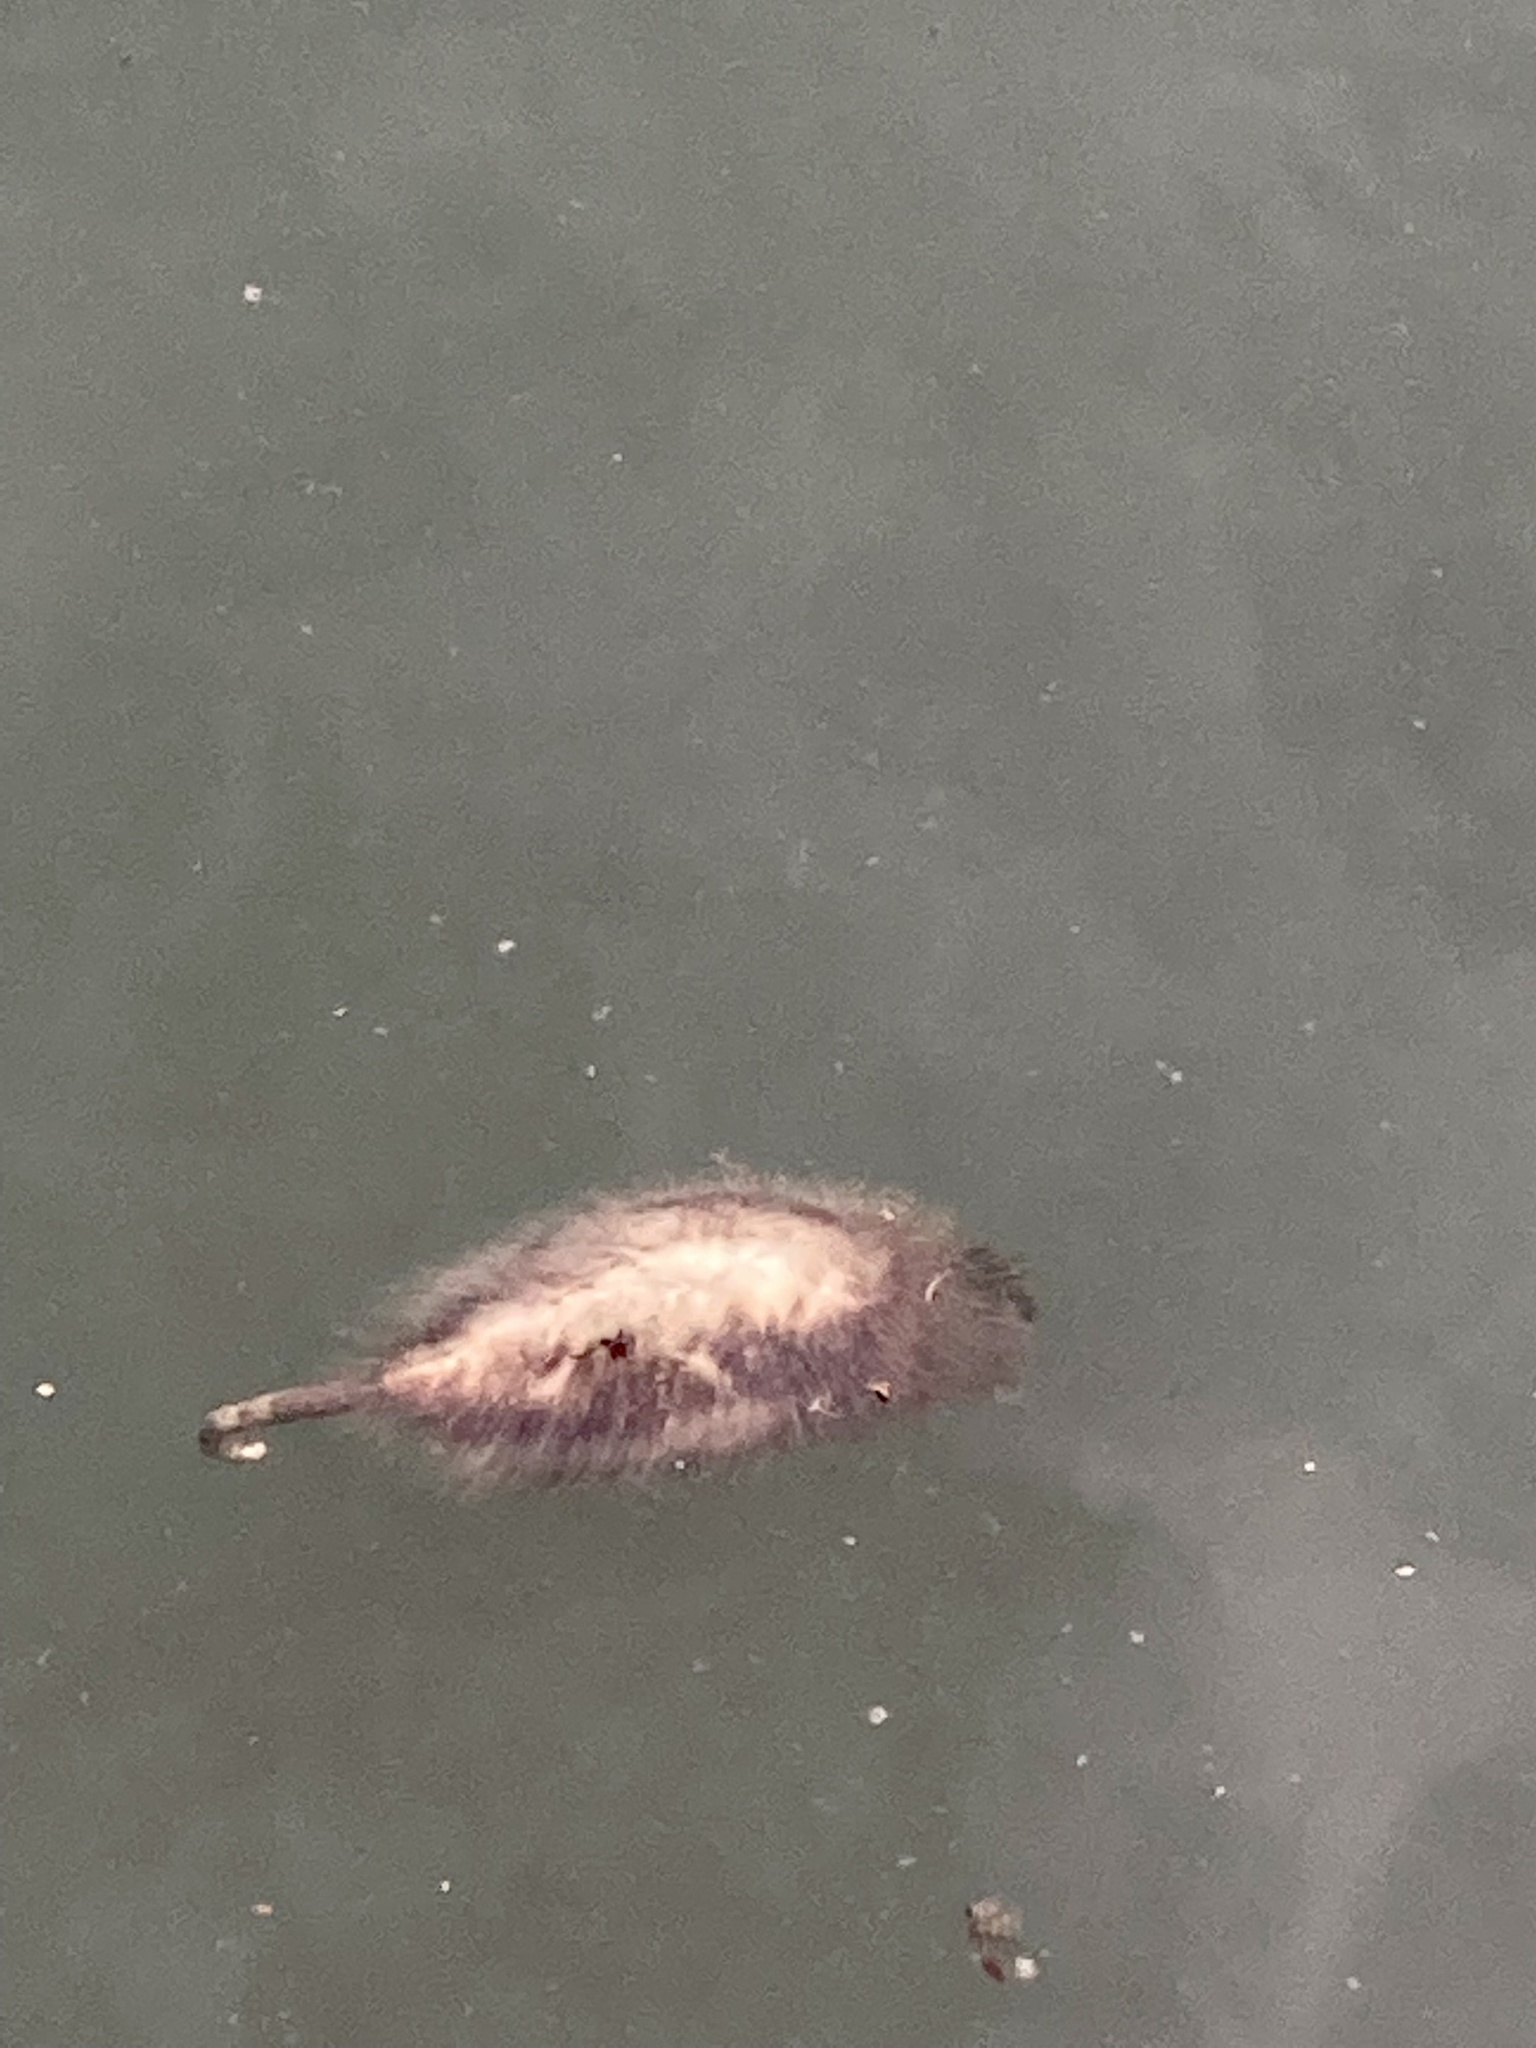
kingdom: Animalia
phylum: Chordata
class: Mammalia
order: Didelphimorphia
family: Didelphidae
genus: Didelphis
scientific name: Didelphis virginiana
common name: Virginia opossum
